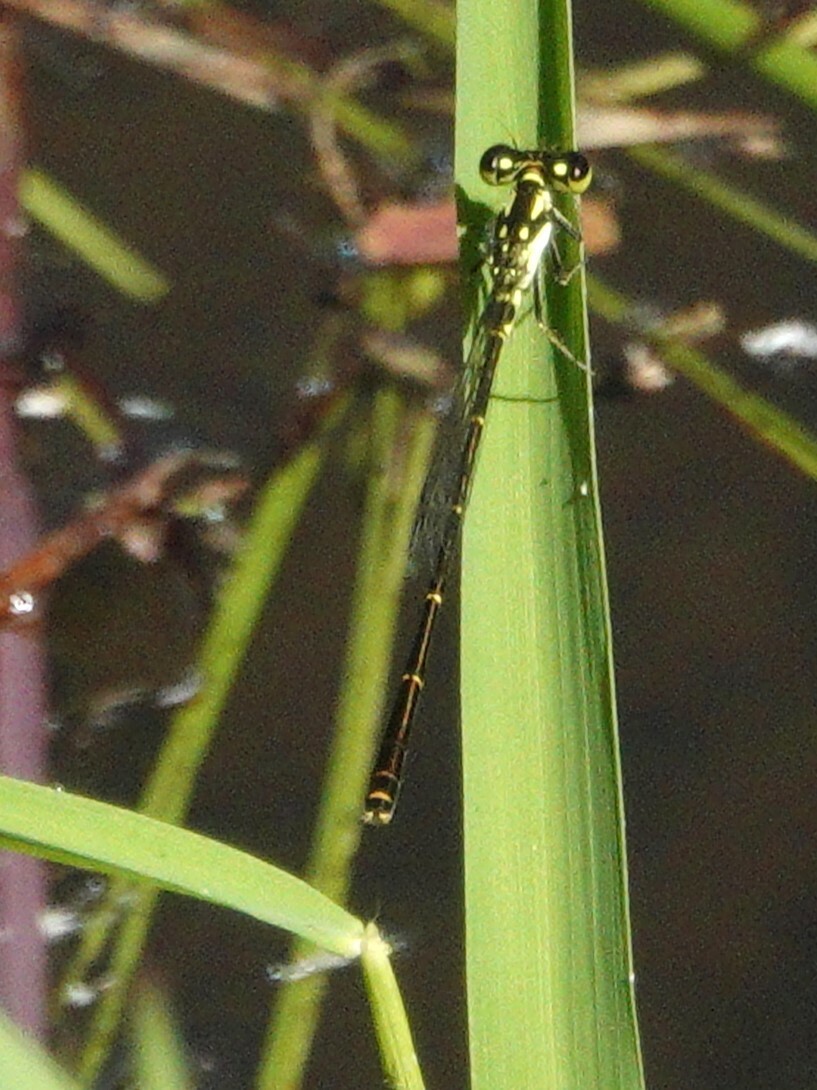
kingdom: Animalia
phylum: Arthropoda
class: Insecta
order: Odonata
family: Coenagrionidae
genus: Ischnura
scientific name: Ischnura posita
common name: Fragile forktail
